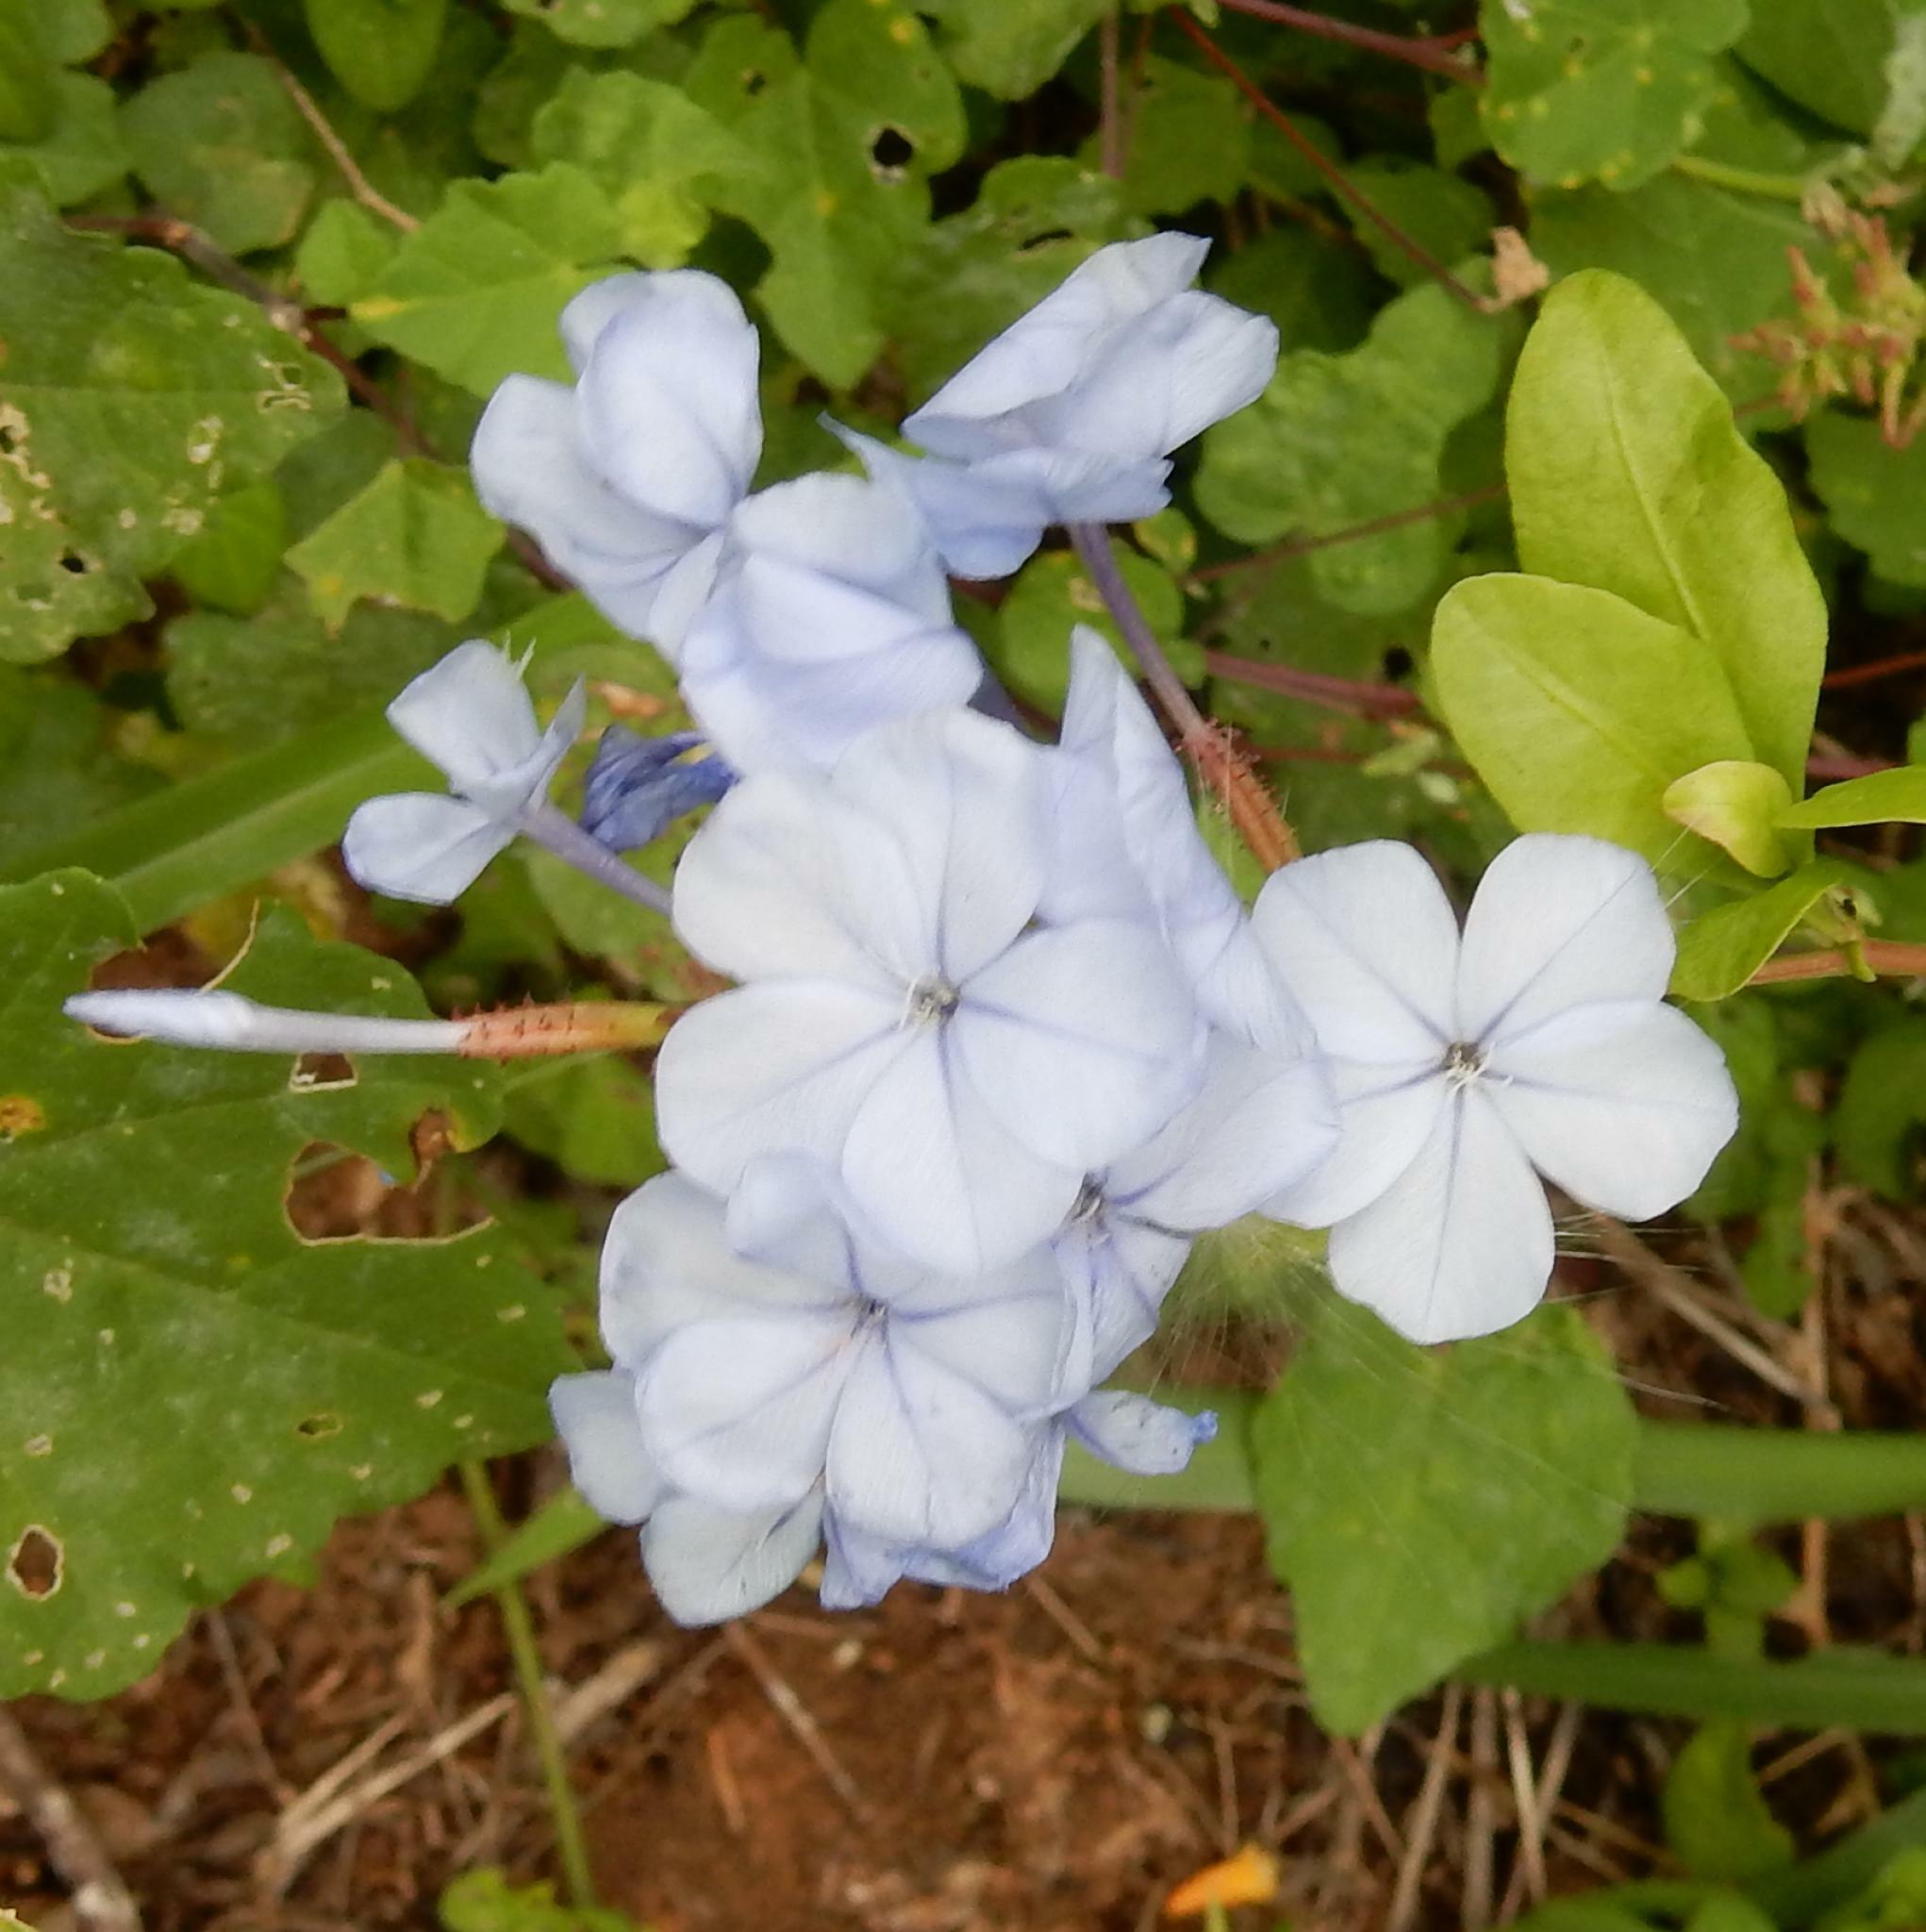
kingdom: Plantae
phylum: Tracheophyta
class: Magnoliopsida
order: Caryophyllales
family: Plumbaginaceae
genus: Plumbago
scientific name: Plumbago auriculata
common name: Cape leadwort
